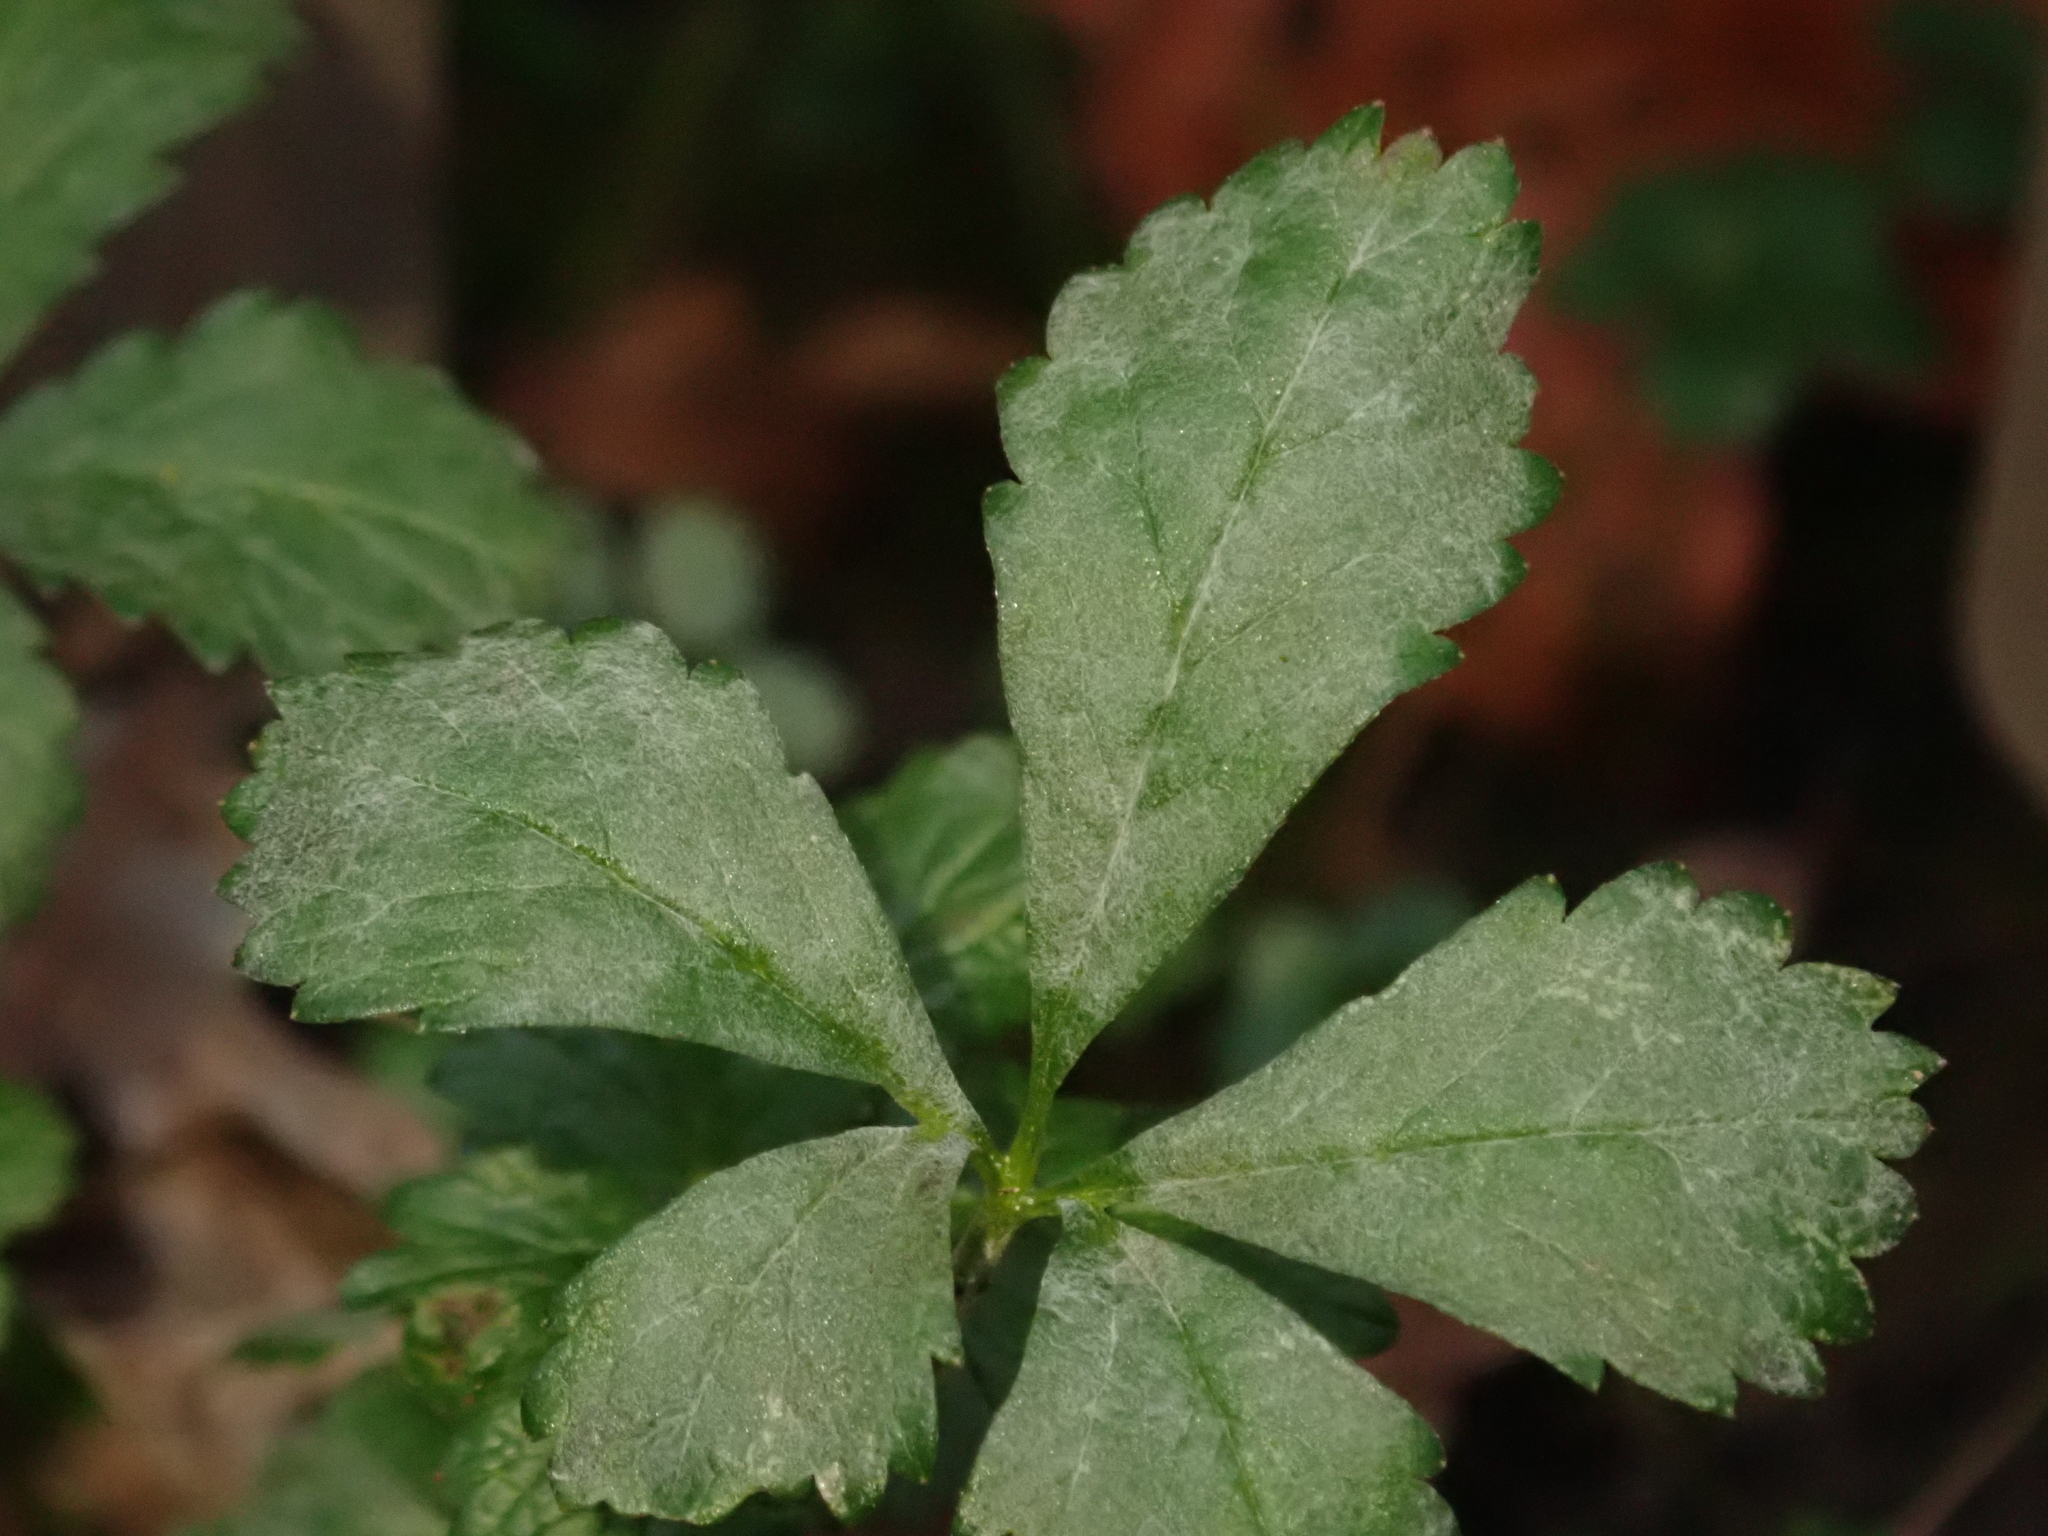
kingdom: Fungi
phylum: Ascomycota
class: Leotiomycetes
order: Helotiales
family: Erysiphaceae
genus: Podosphaera
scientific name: Podosphaera aphanis
